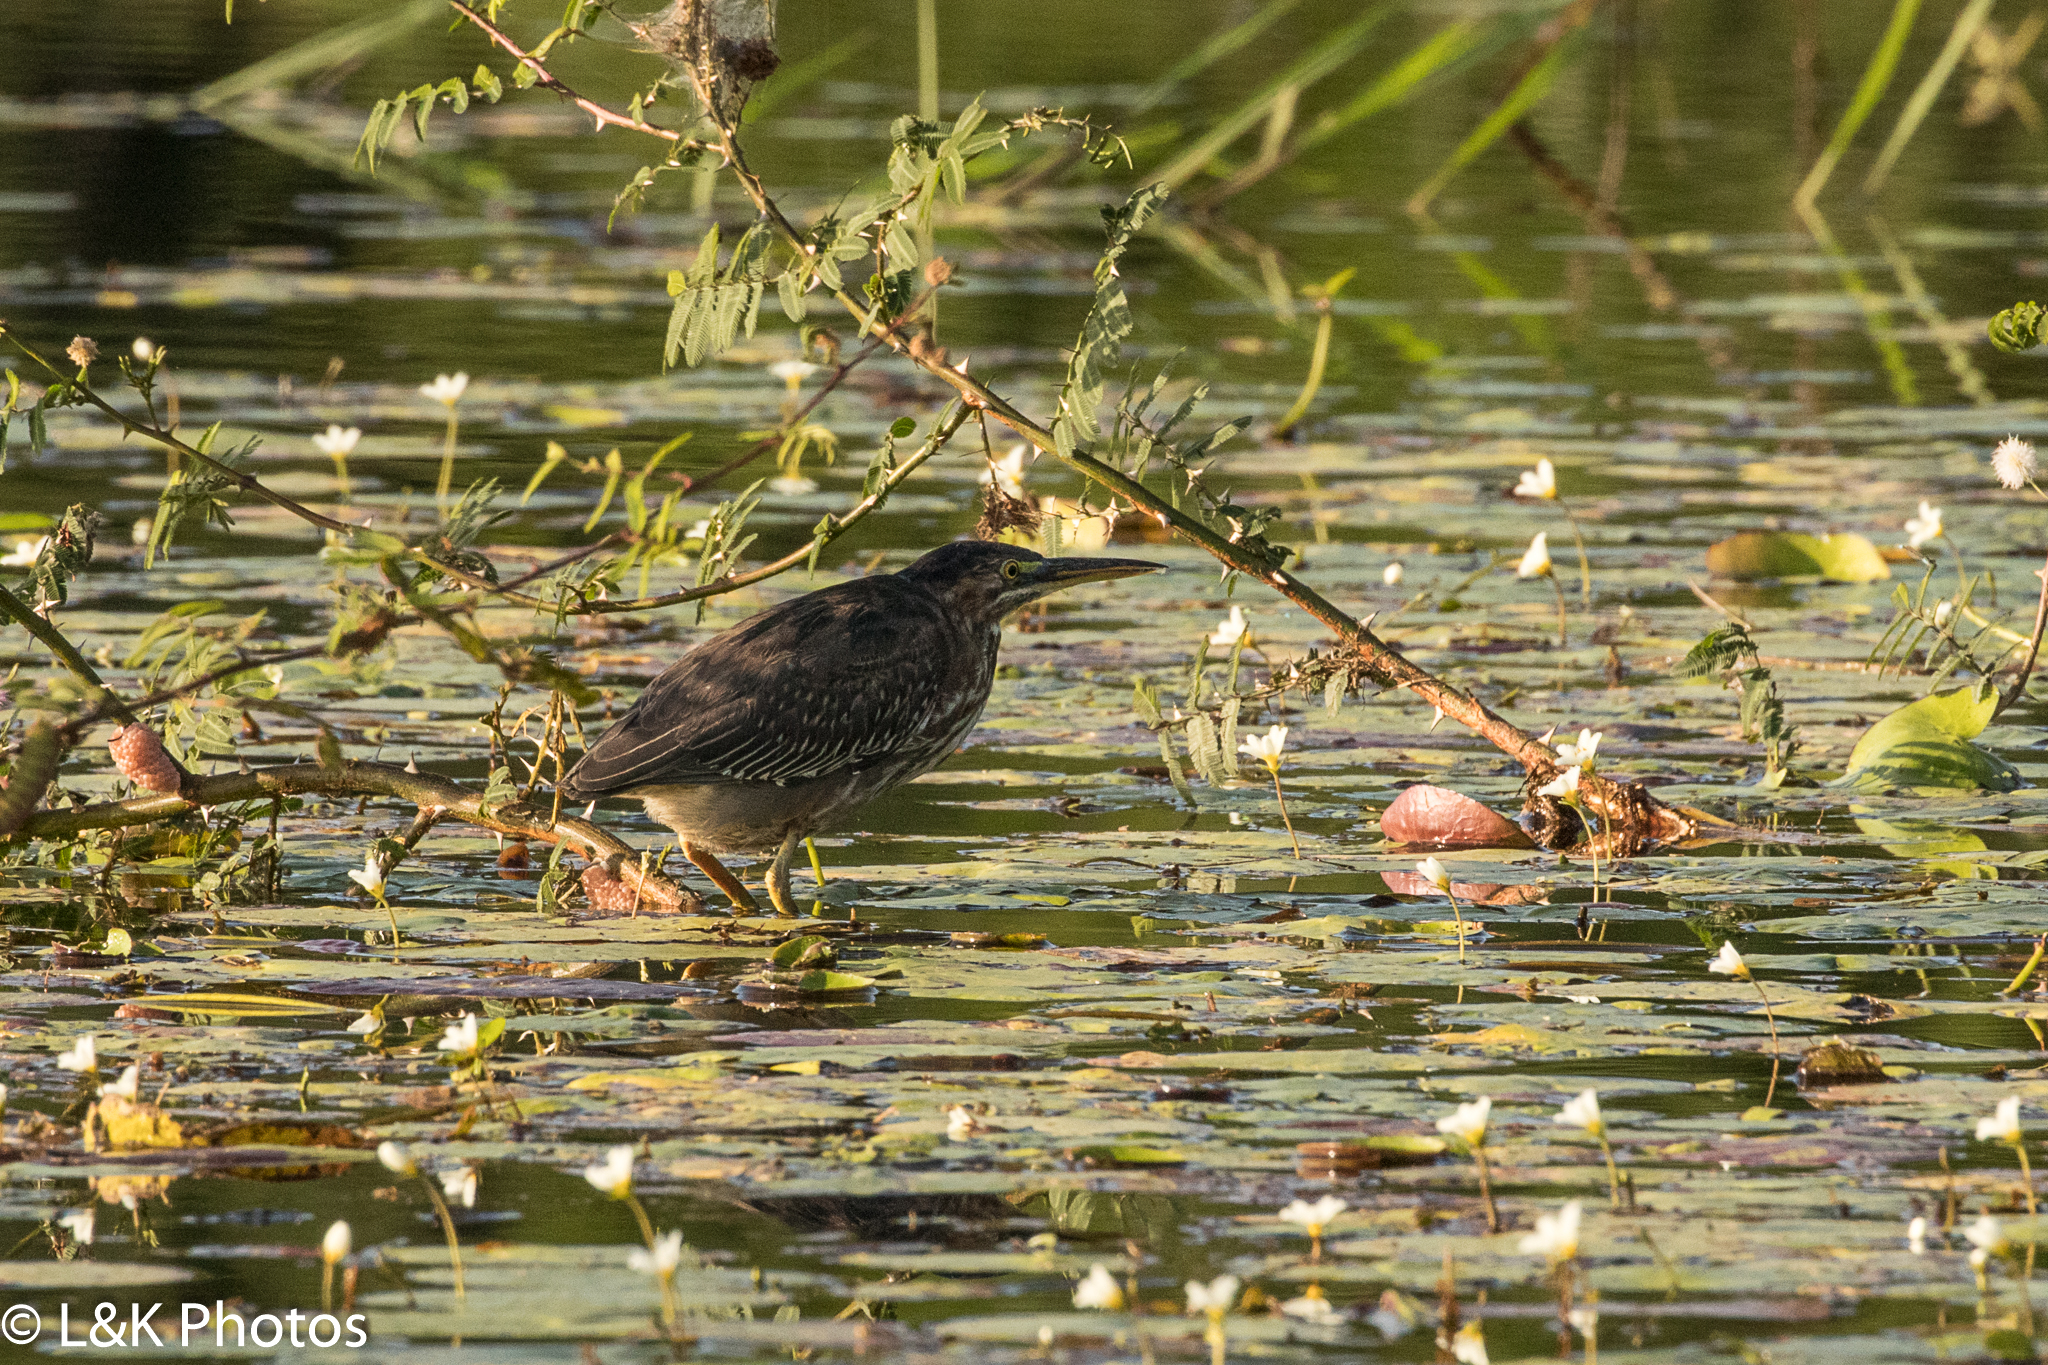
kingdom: Animalia
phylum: Chordata
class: Aves
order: Pelecaniformes
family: Ardeidae
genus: Butorides
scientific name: Butorides virescens
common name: Green heron
